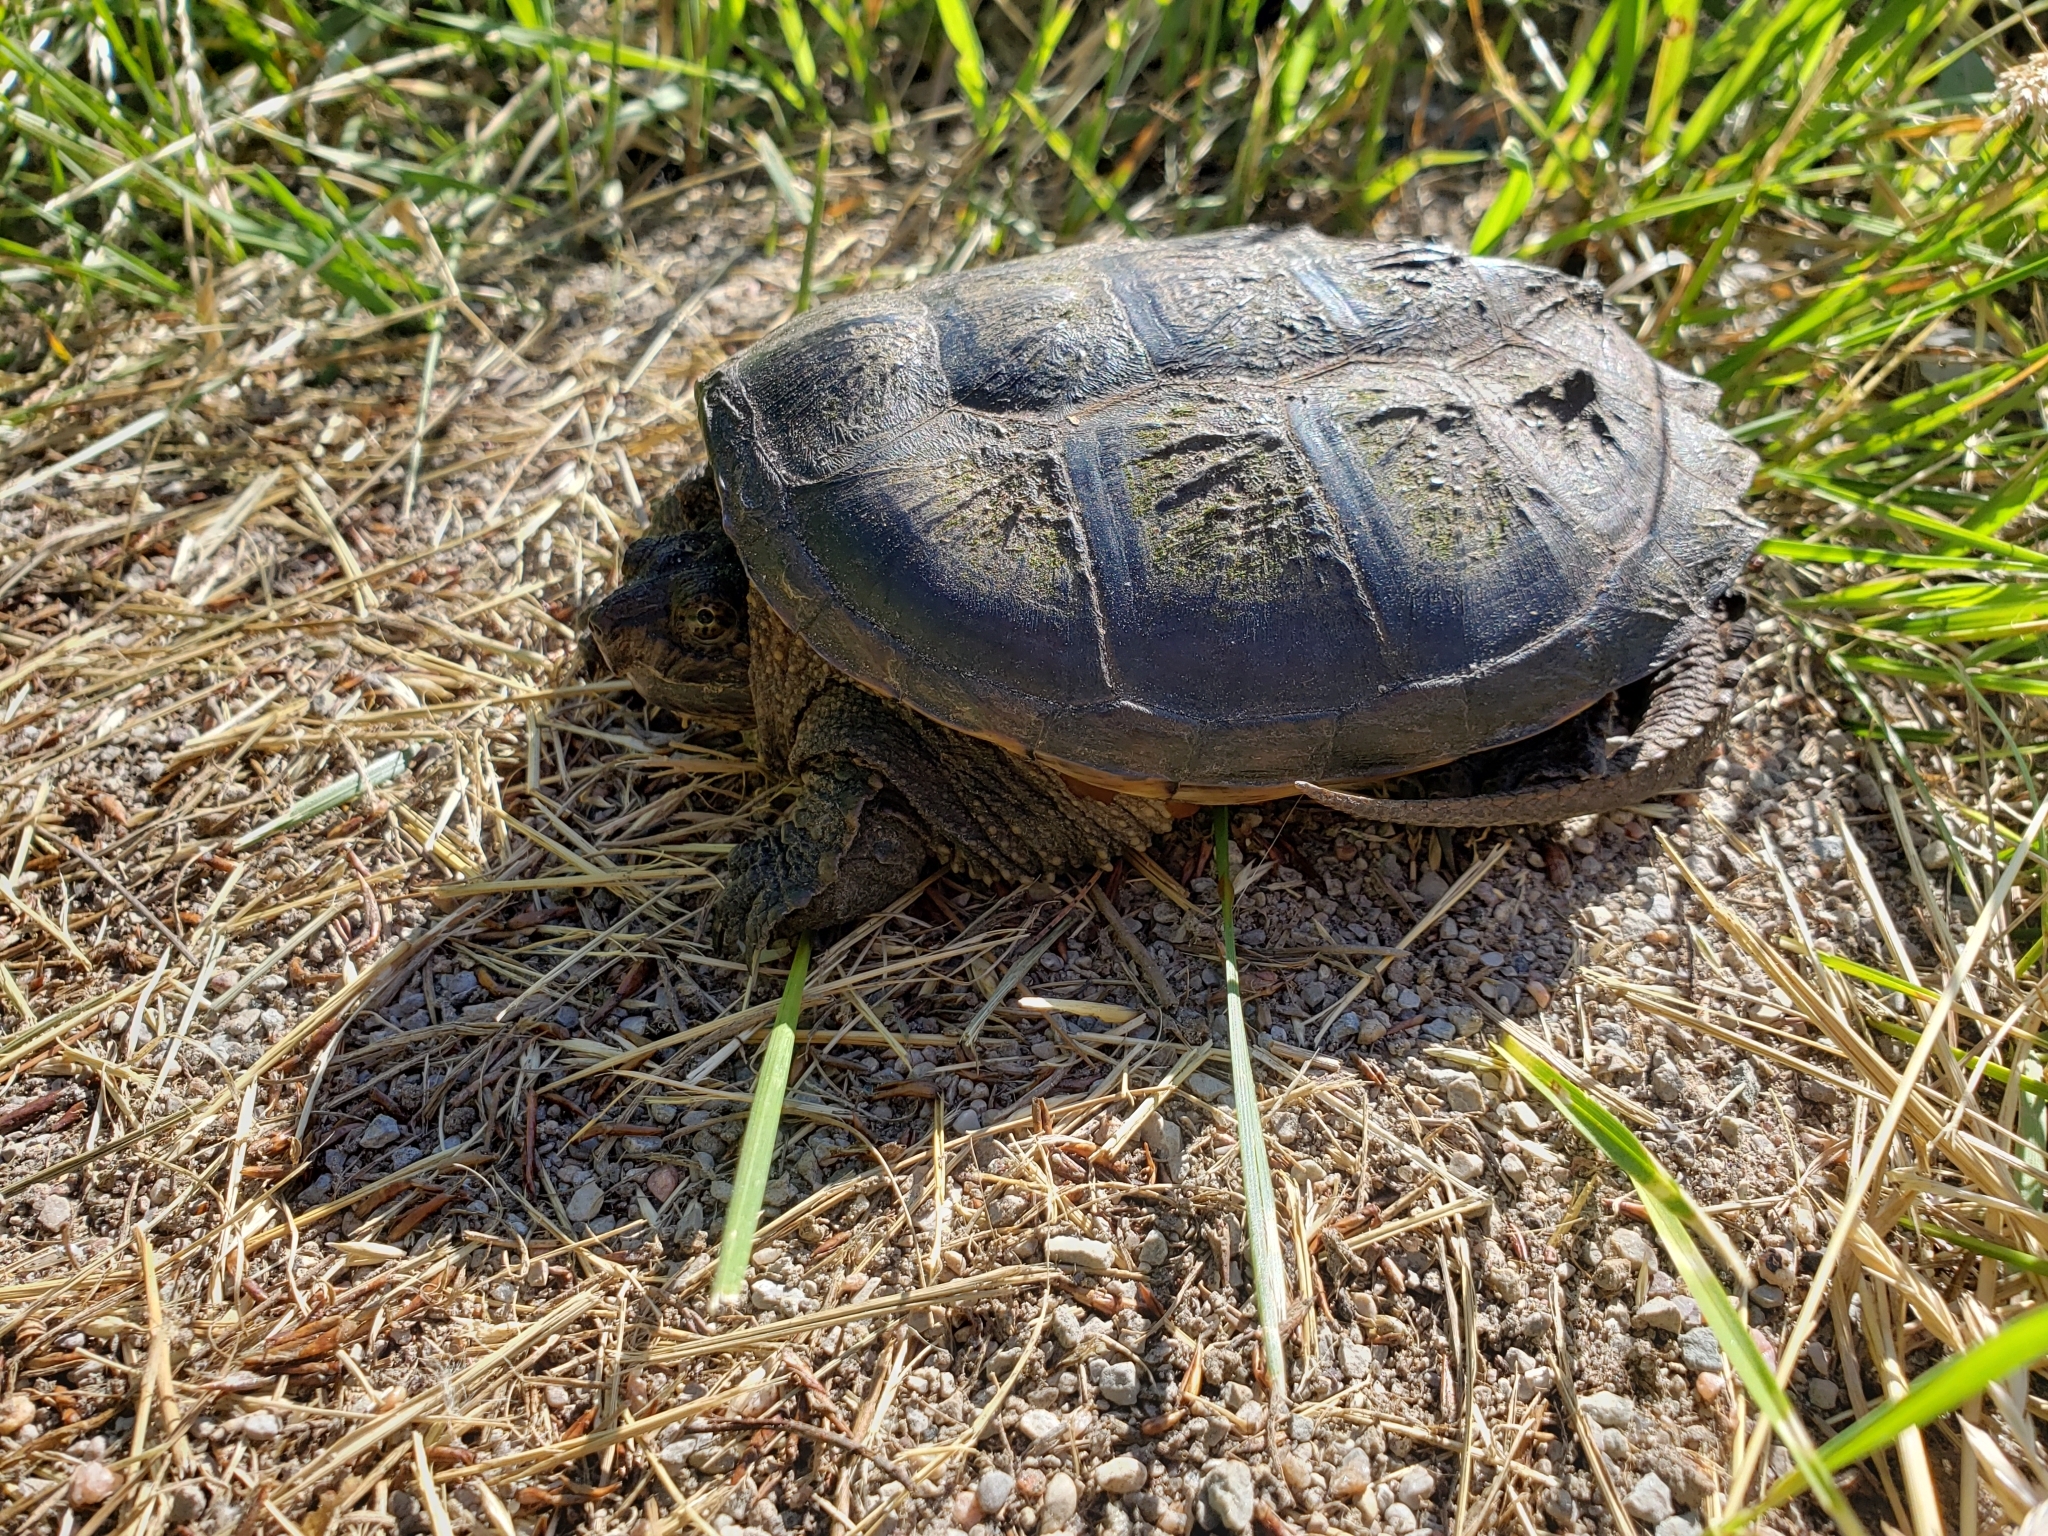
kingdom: Animalia
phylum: Chordata
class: Testudines
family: Chelydridae
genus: Chelydra
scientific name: Chelydra serpentina
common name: Common snapping turtle
